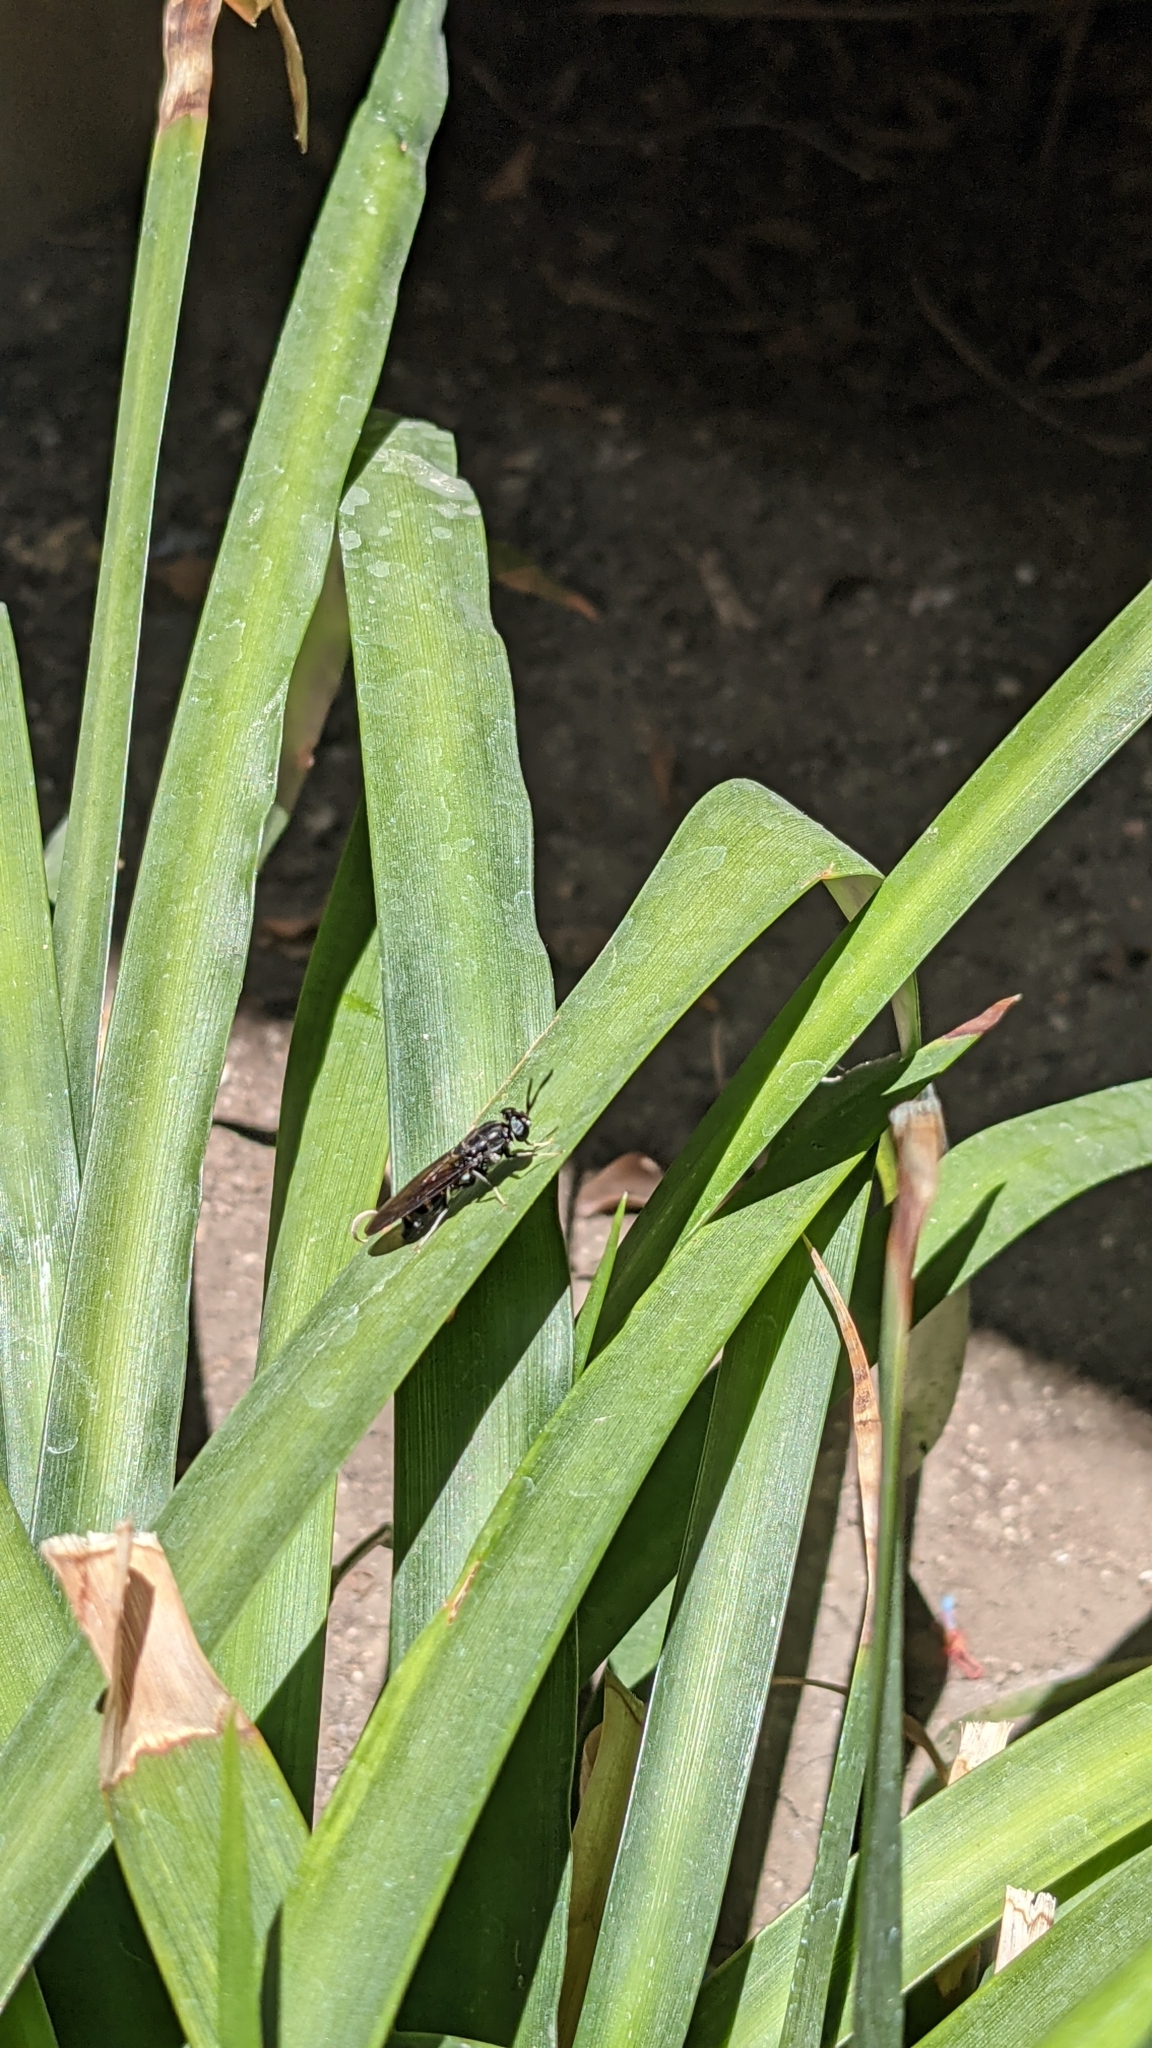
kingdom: Animalia
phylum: Arthropoda
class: Insecta
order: Diptera
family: Stratiomyidae
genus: Hermetia
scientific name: Hermetia illucens
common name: Black soldier fly
